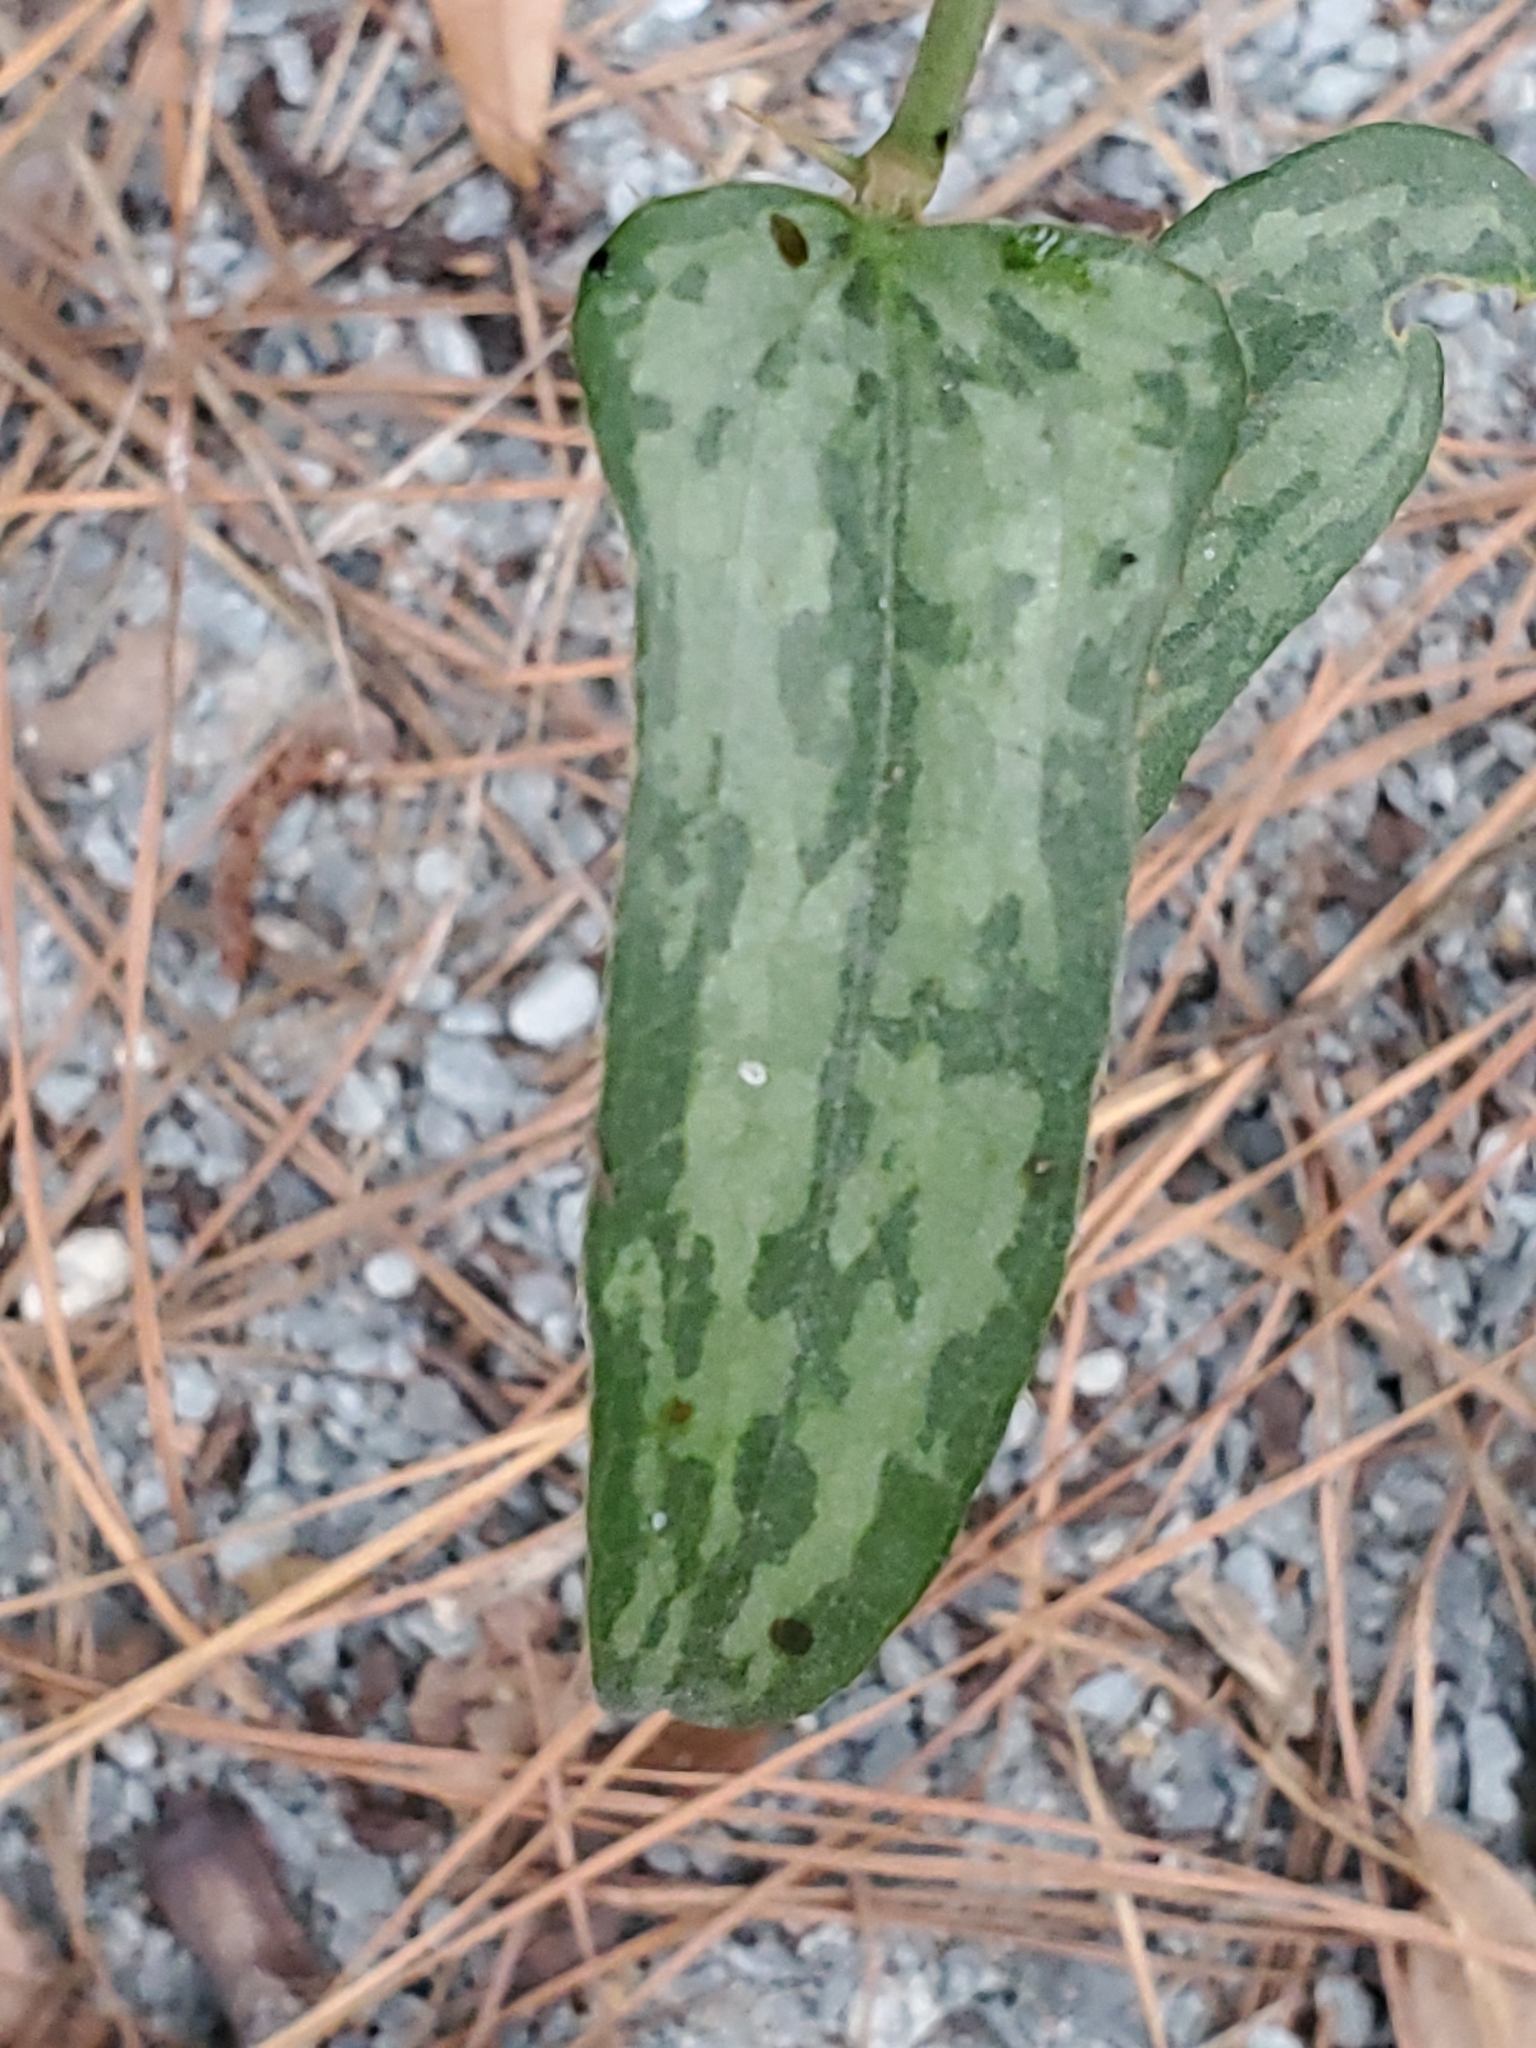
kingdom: Plantae
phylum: Tracheophyta
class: Liliopsida
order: Liliales
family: Smilacaceae
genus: Smilax
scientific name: Smilax bona-nox
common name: Catbrier
